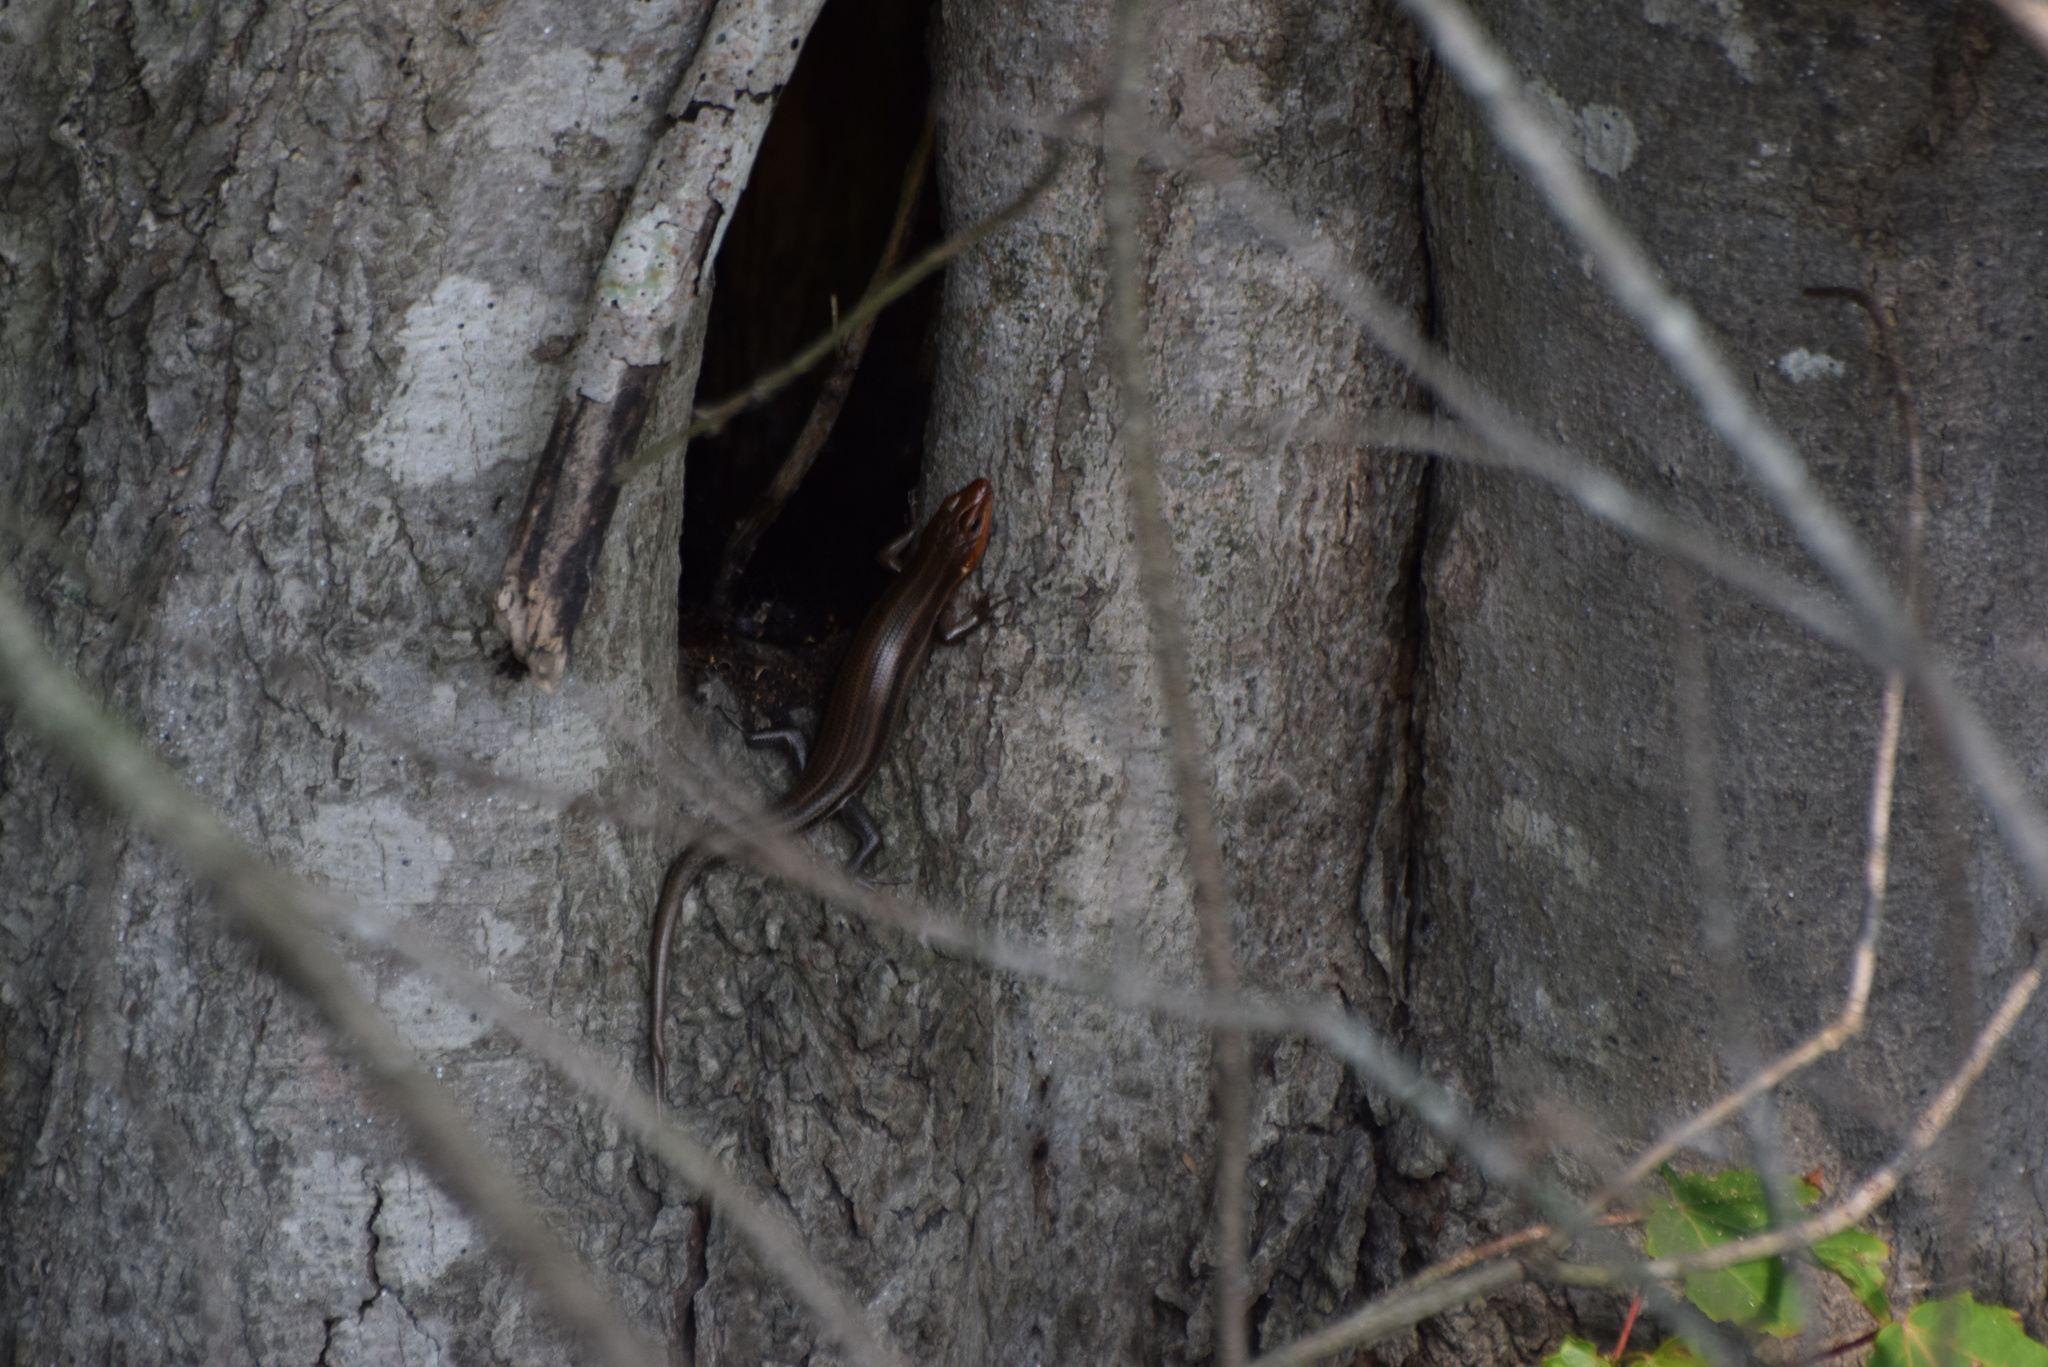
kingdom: Animalia
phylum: Chordata
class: Squamata
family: Scincidae
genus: Plestiodon
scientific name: Plestiodon fasciatus
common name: Five-lined skink
